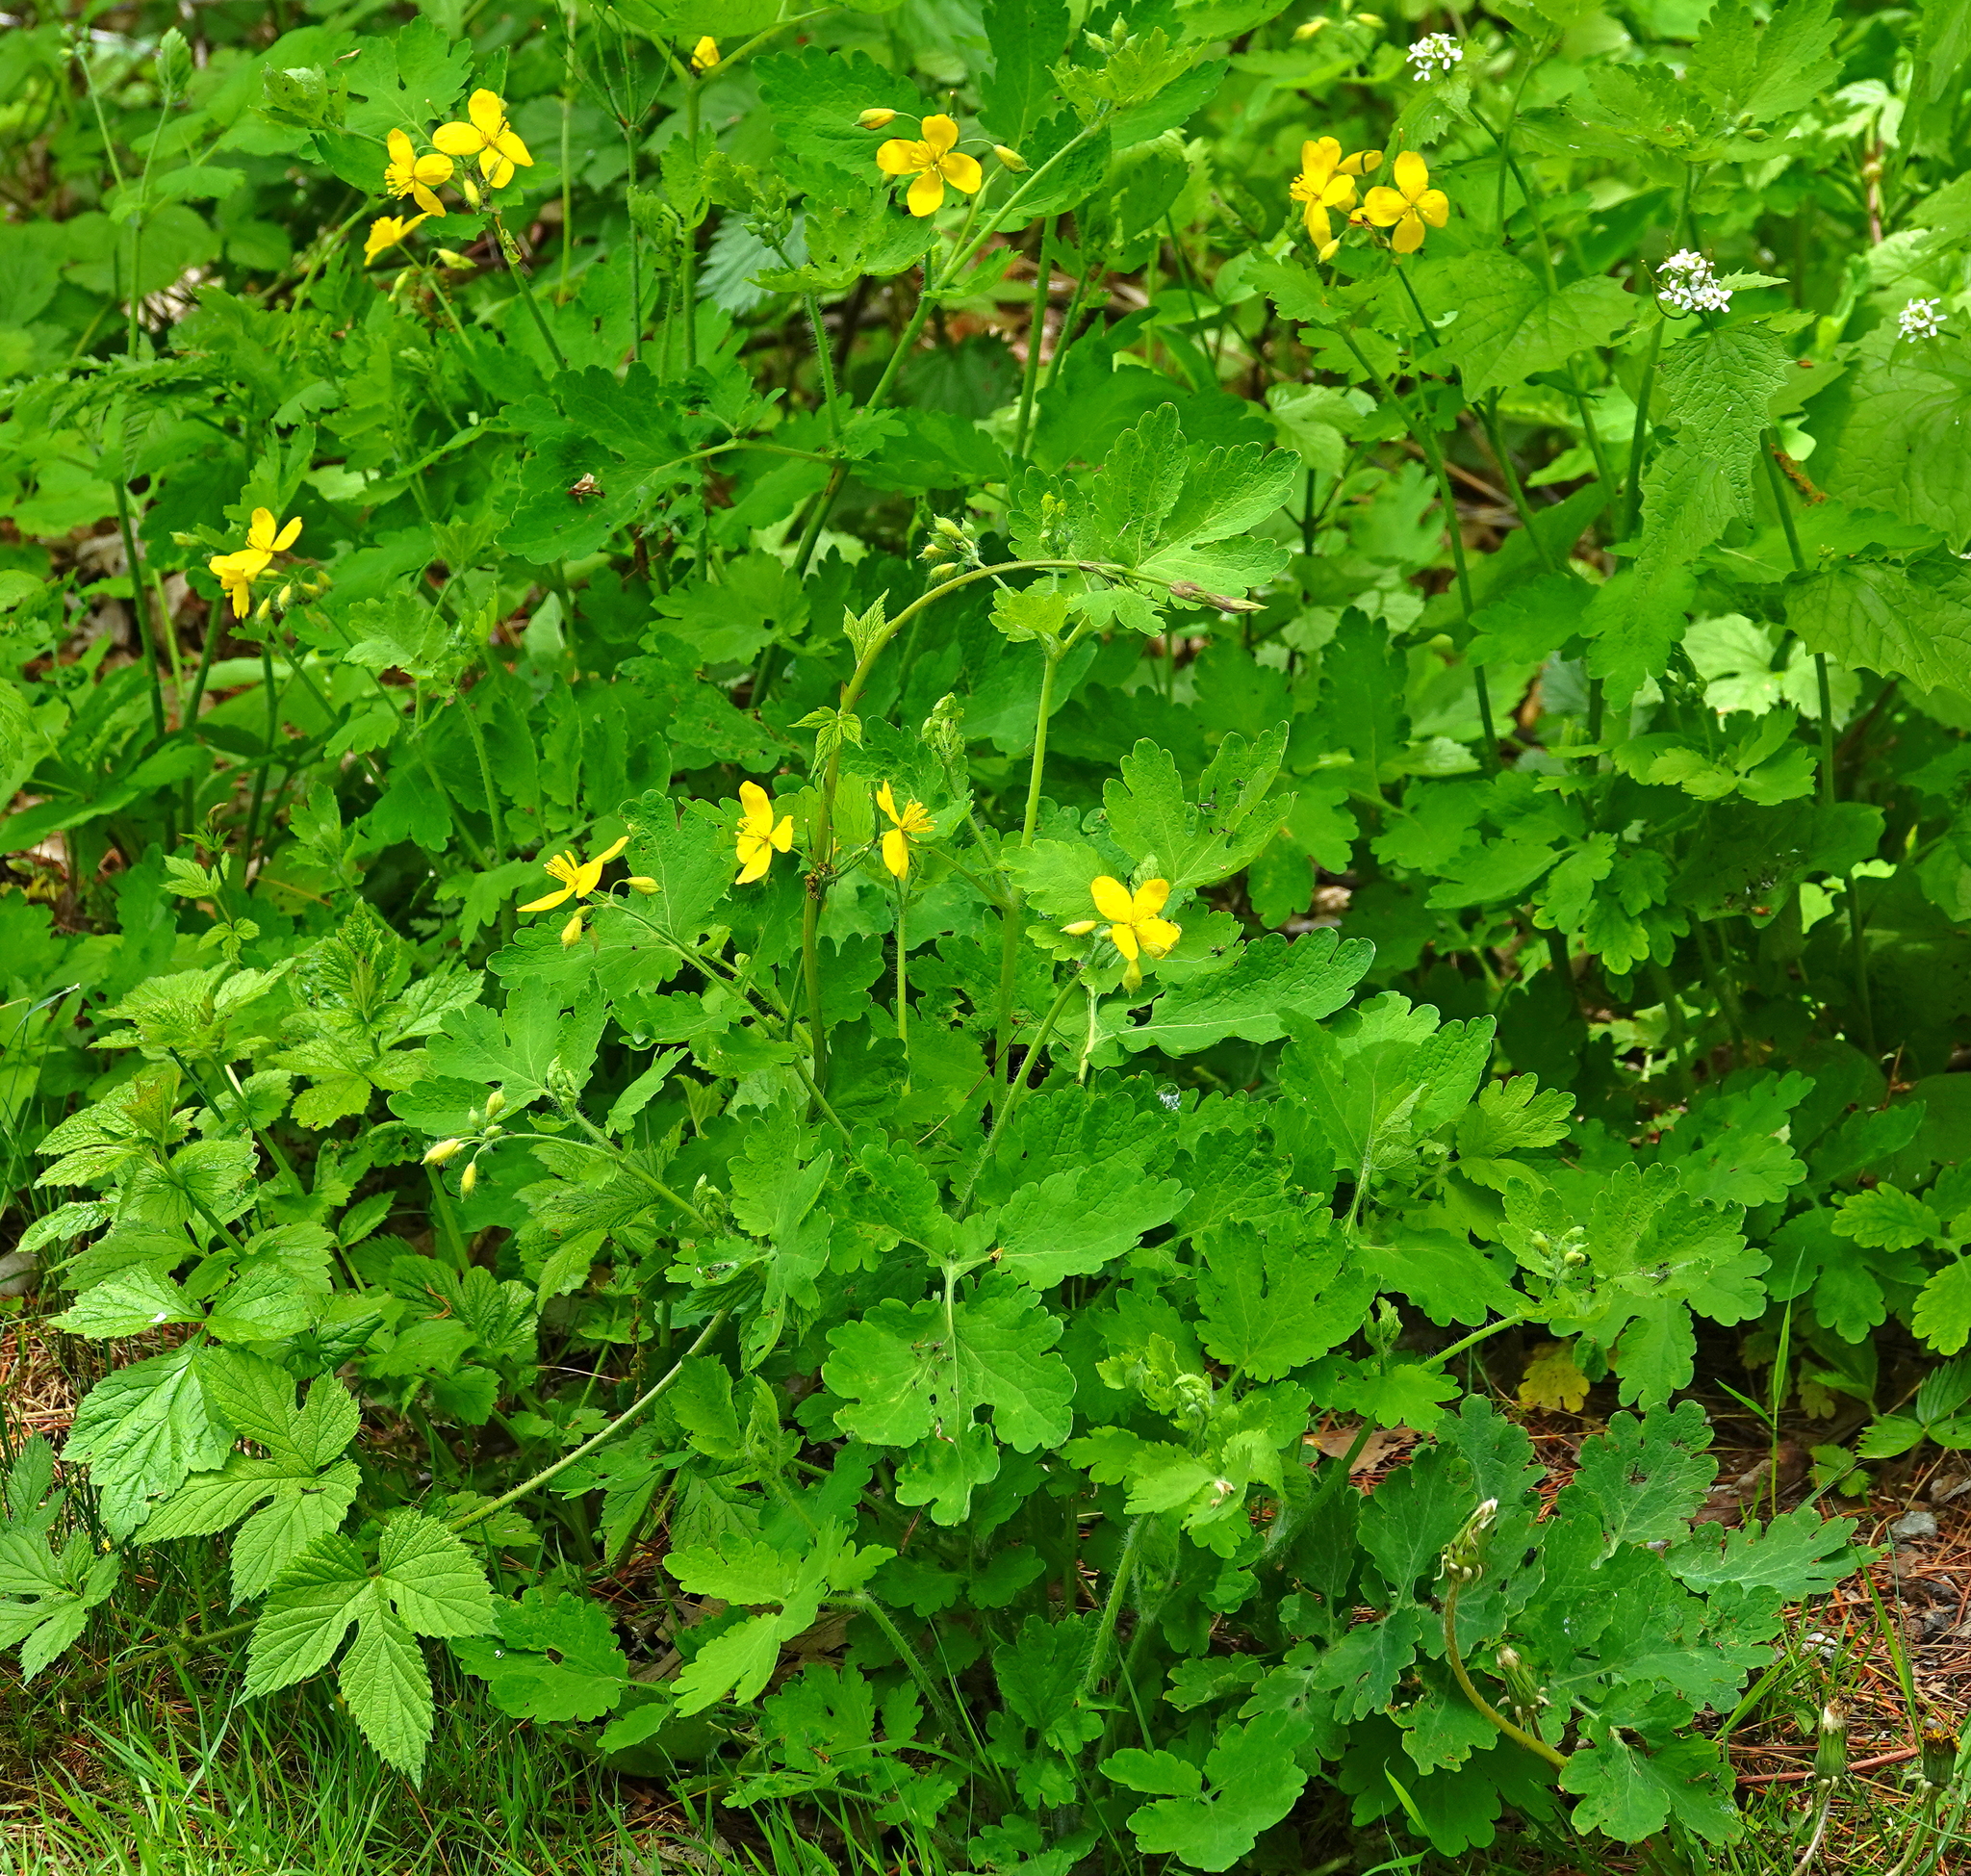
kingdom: Plantae
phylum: Tracheophyta
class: Magnoliopsida
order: Ranunculales
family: Papaveraceae
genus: Chelidonium
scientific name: Chelidonium majus
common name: Greater celandine
